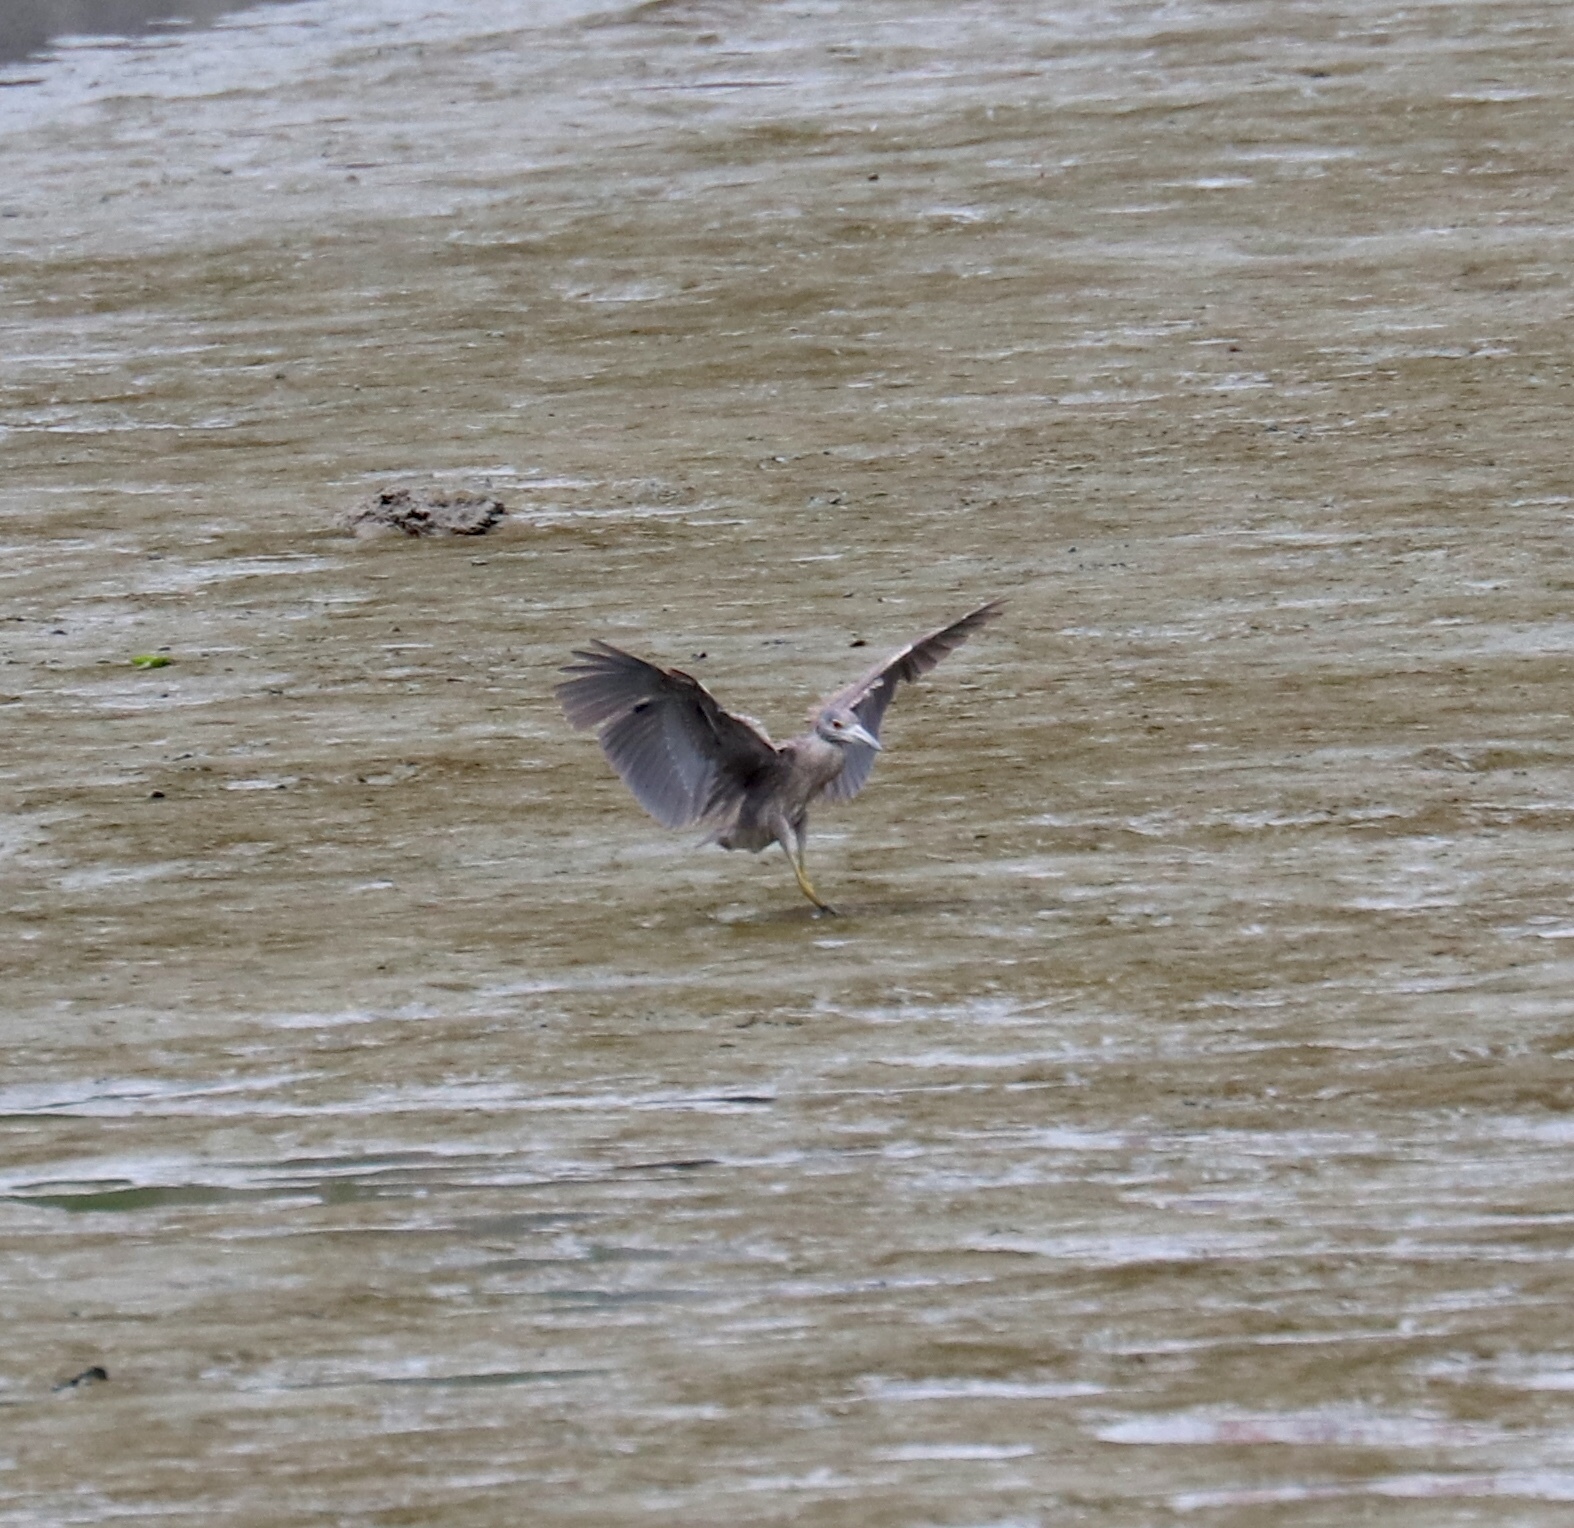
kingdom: Animalia
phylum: Chordata
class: Aves
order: Pelecaniformes
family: Ardeidae
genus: Nyctanassa
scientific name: Nyctanassa violacea
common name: Yellow-crowned night heron
